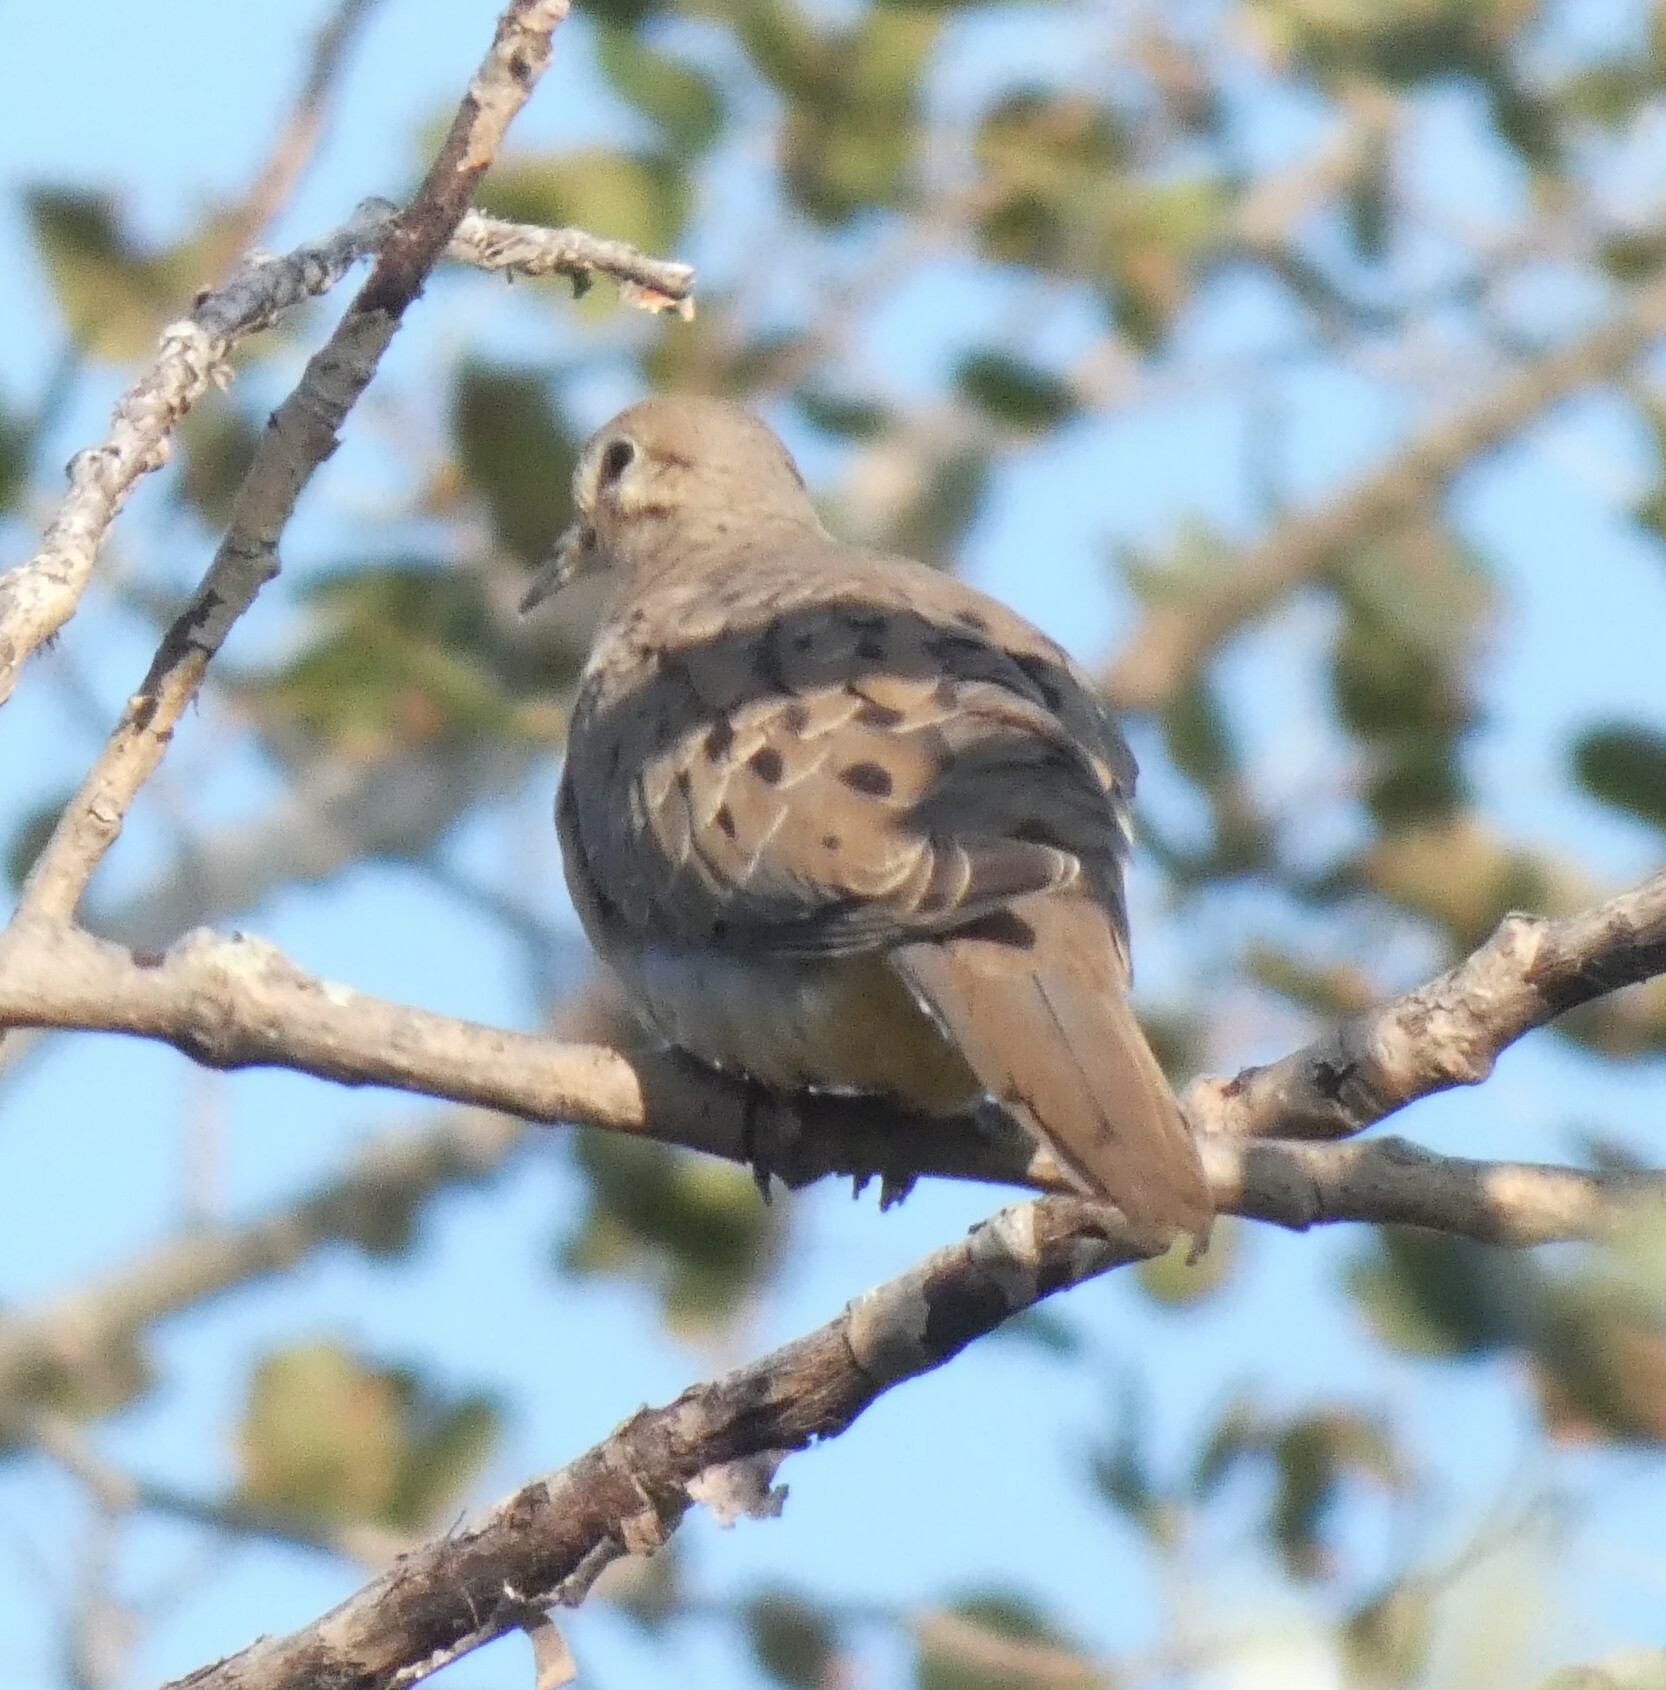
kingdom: Animalia
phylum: Chordata
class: Aves
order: Columbiformes
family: Columbidae
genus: Zenaida
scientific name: Zenaida macroura
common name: Mourning dove
